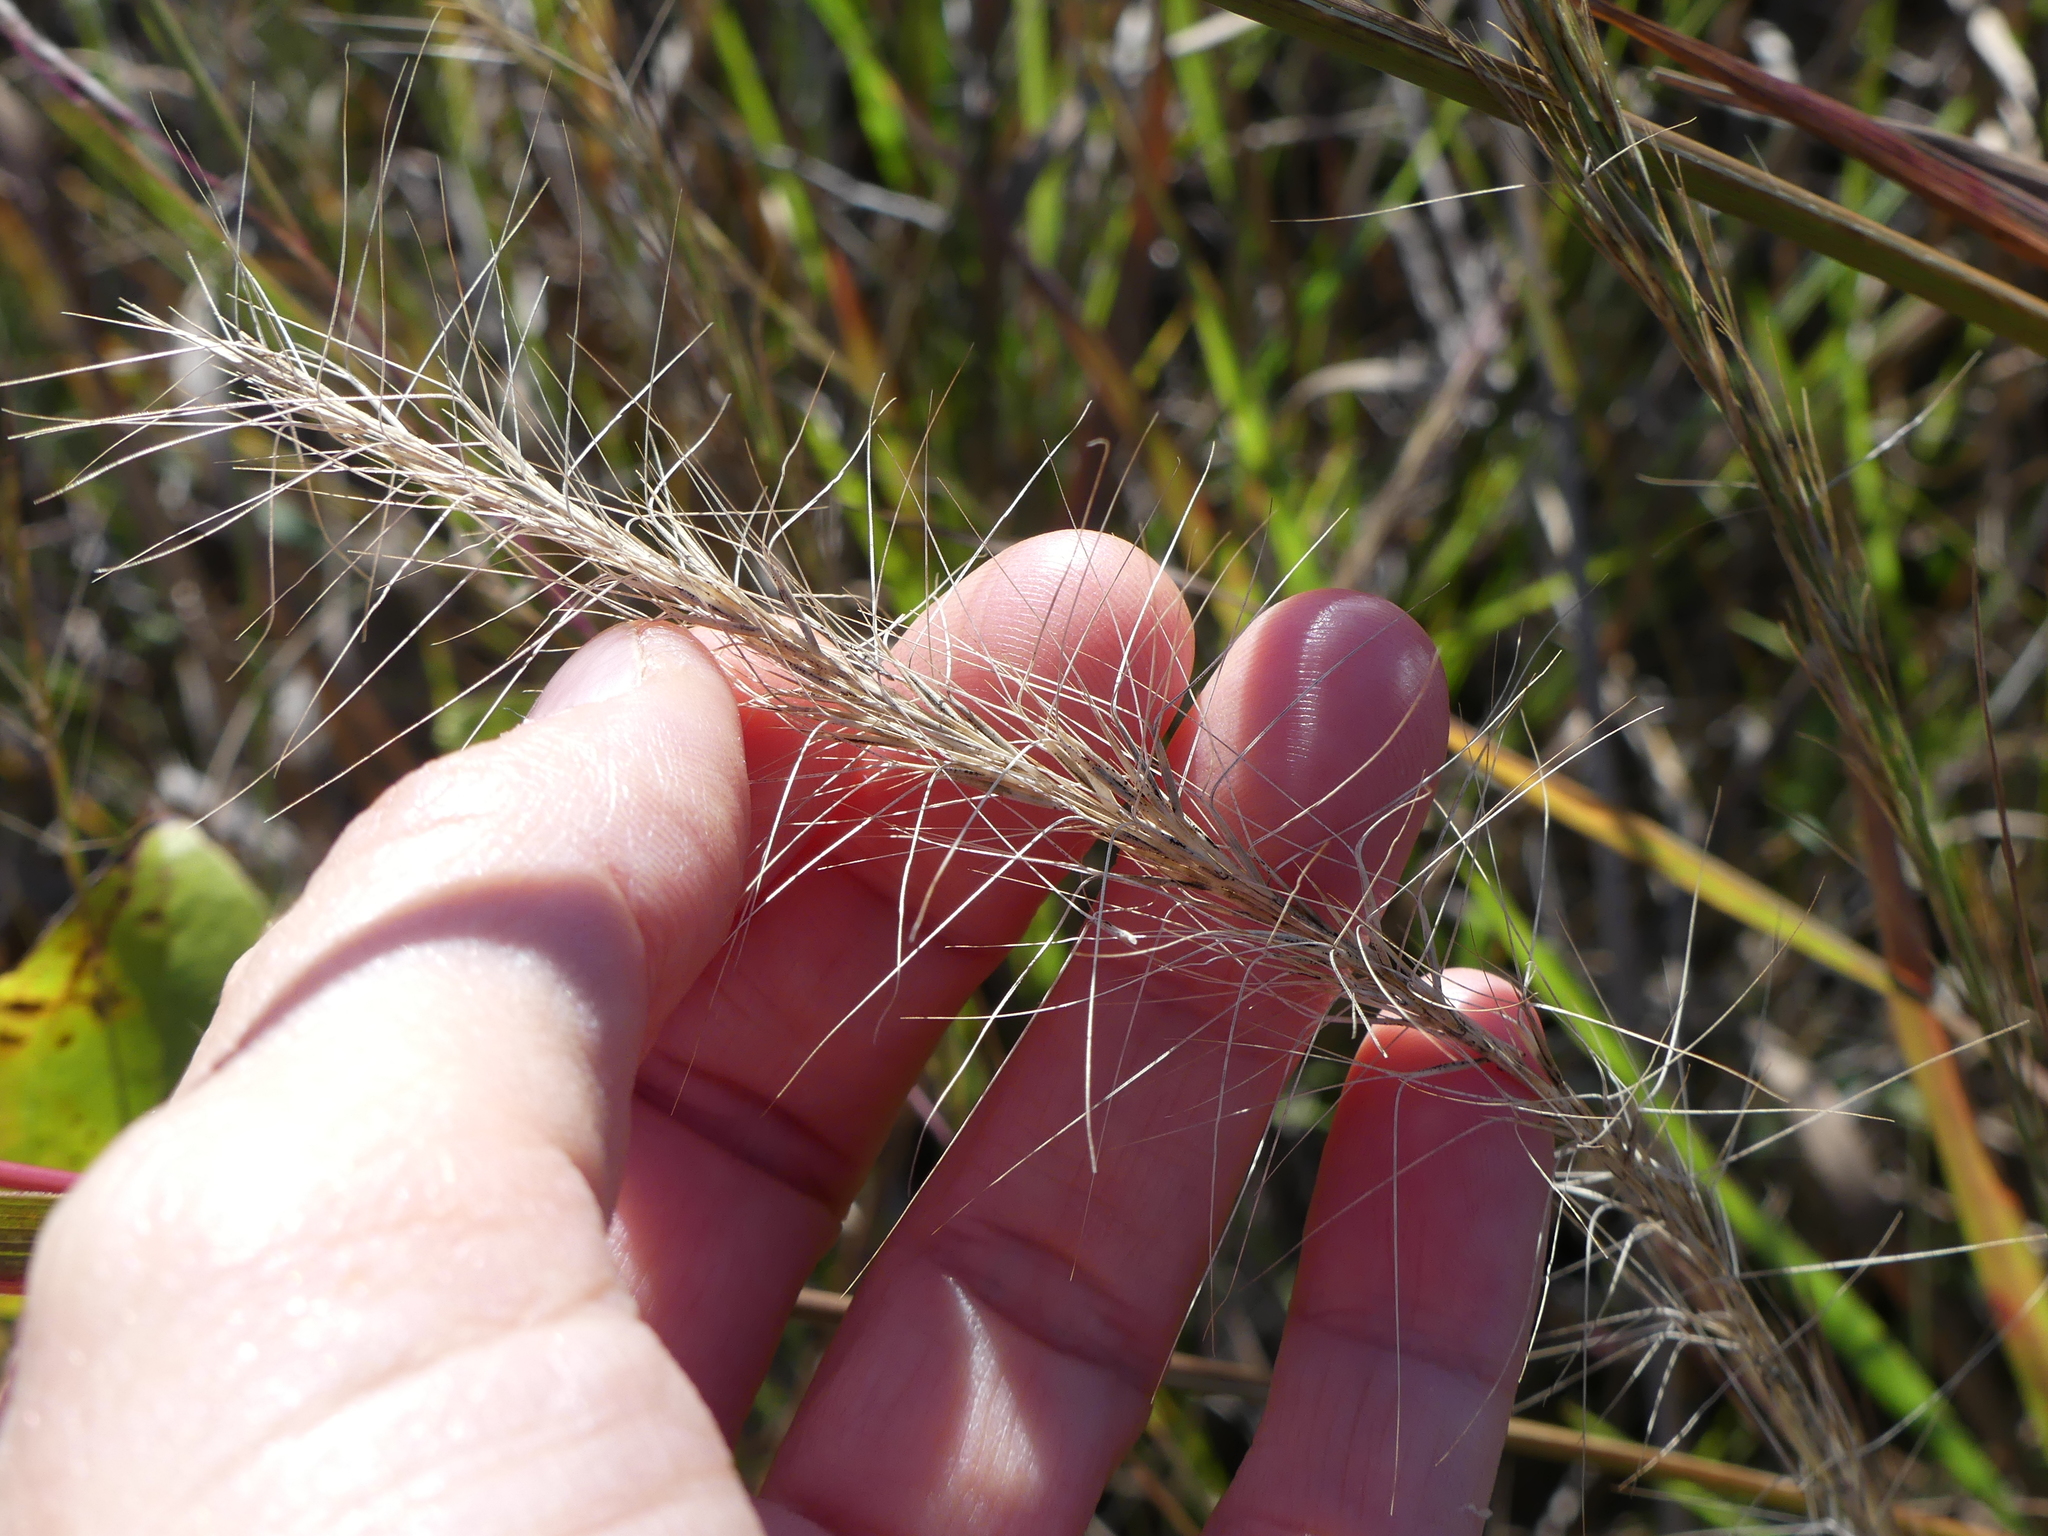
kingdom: Plantae
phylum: Tracheophyta
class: Liliopsida
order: Poales
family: Poaceae
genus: Aristida
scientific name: Aristida purpurascens
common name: Arrow-feather
